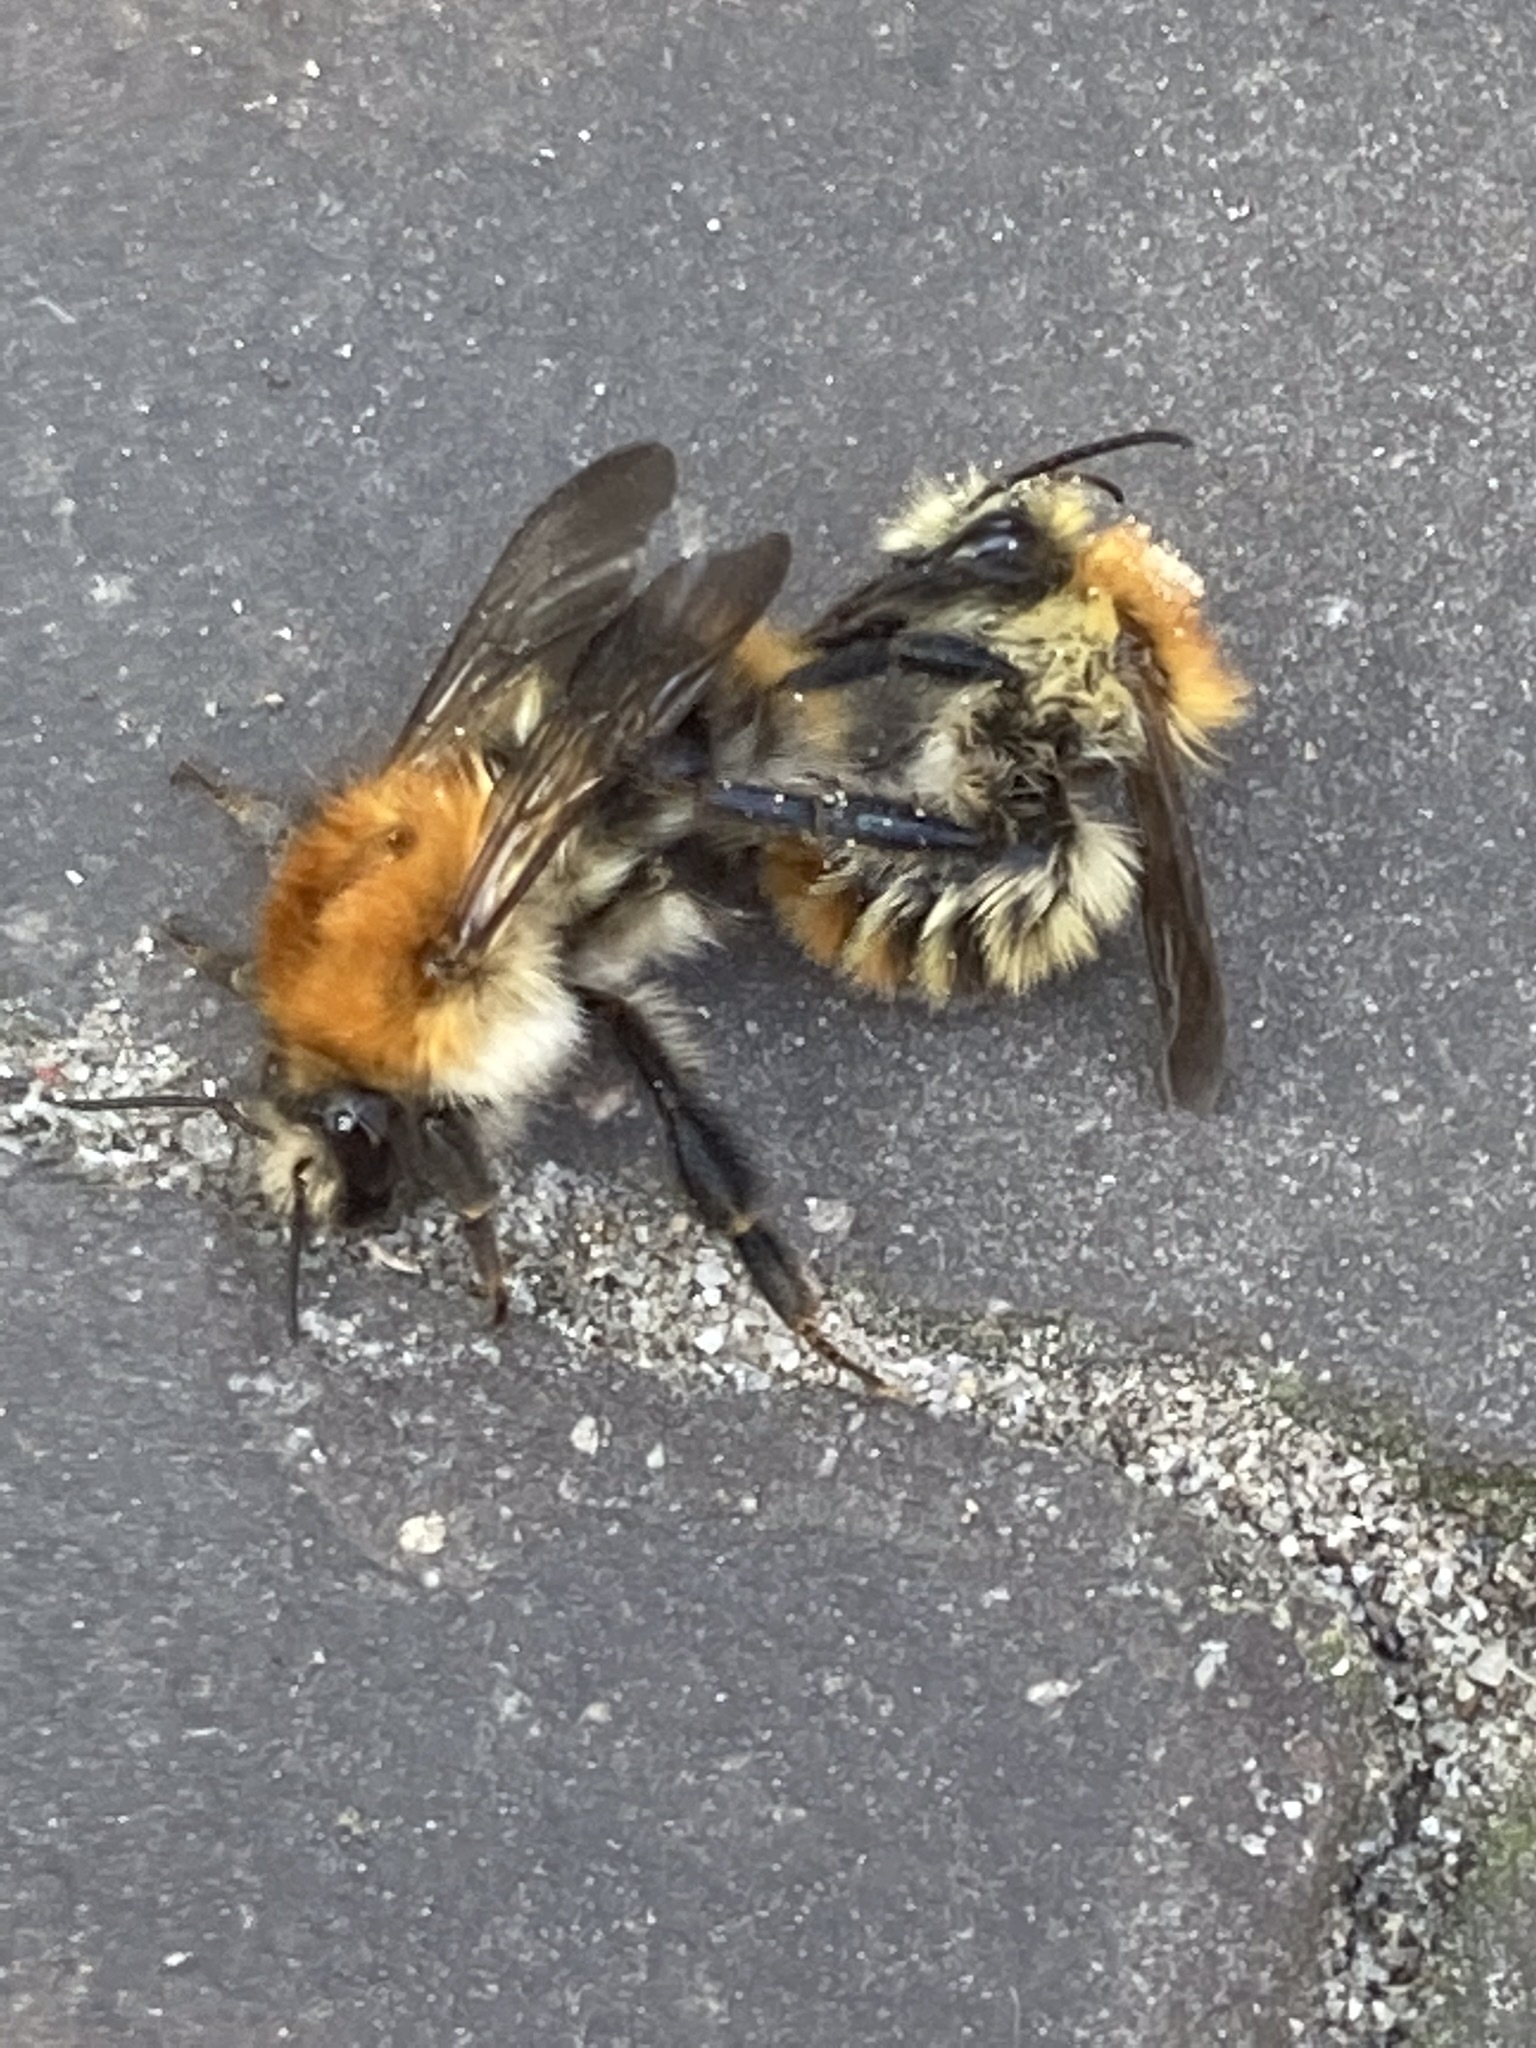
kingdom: Animalia
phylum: Arthropoda
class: Insecta
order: Hymenoptera
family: Apidae
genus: Bombus
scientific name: Bombus pascuorum
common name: Common carder bee
